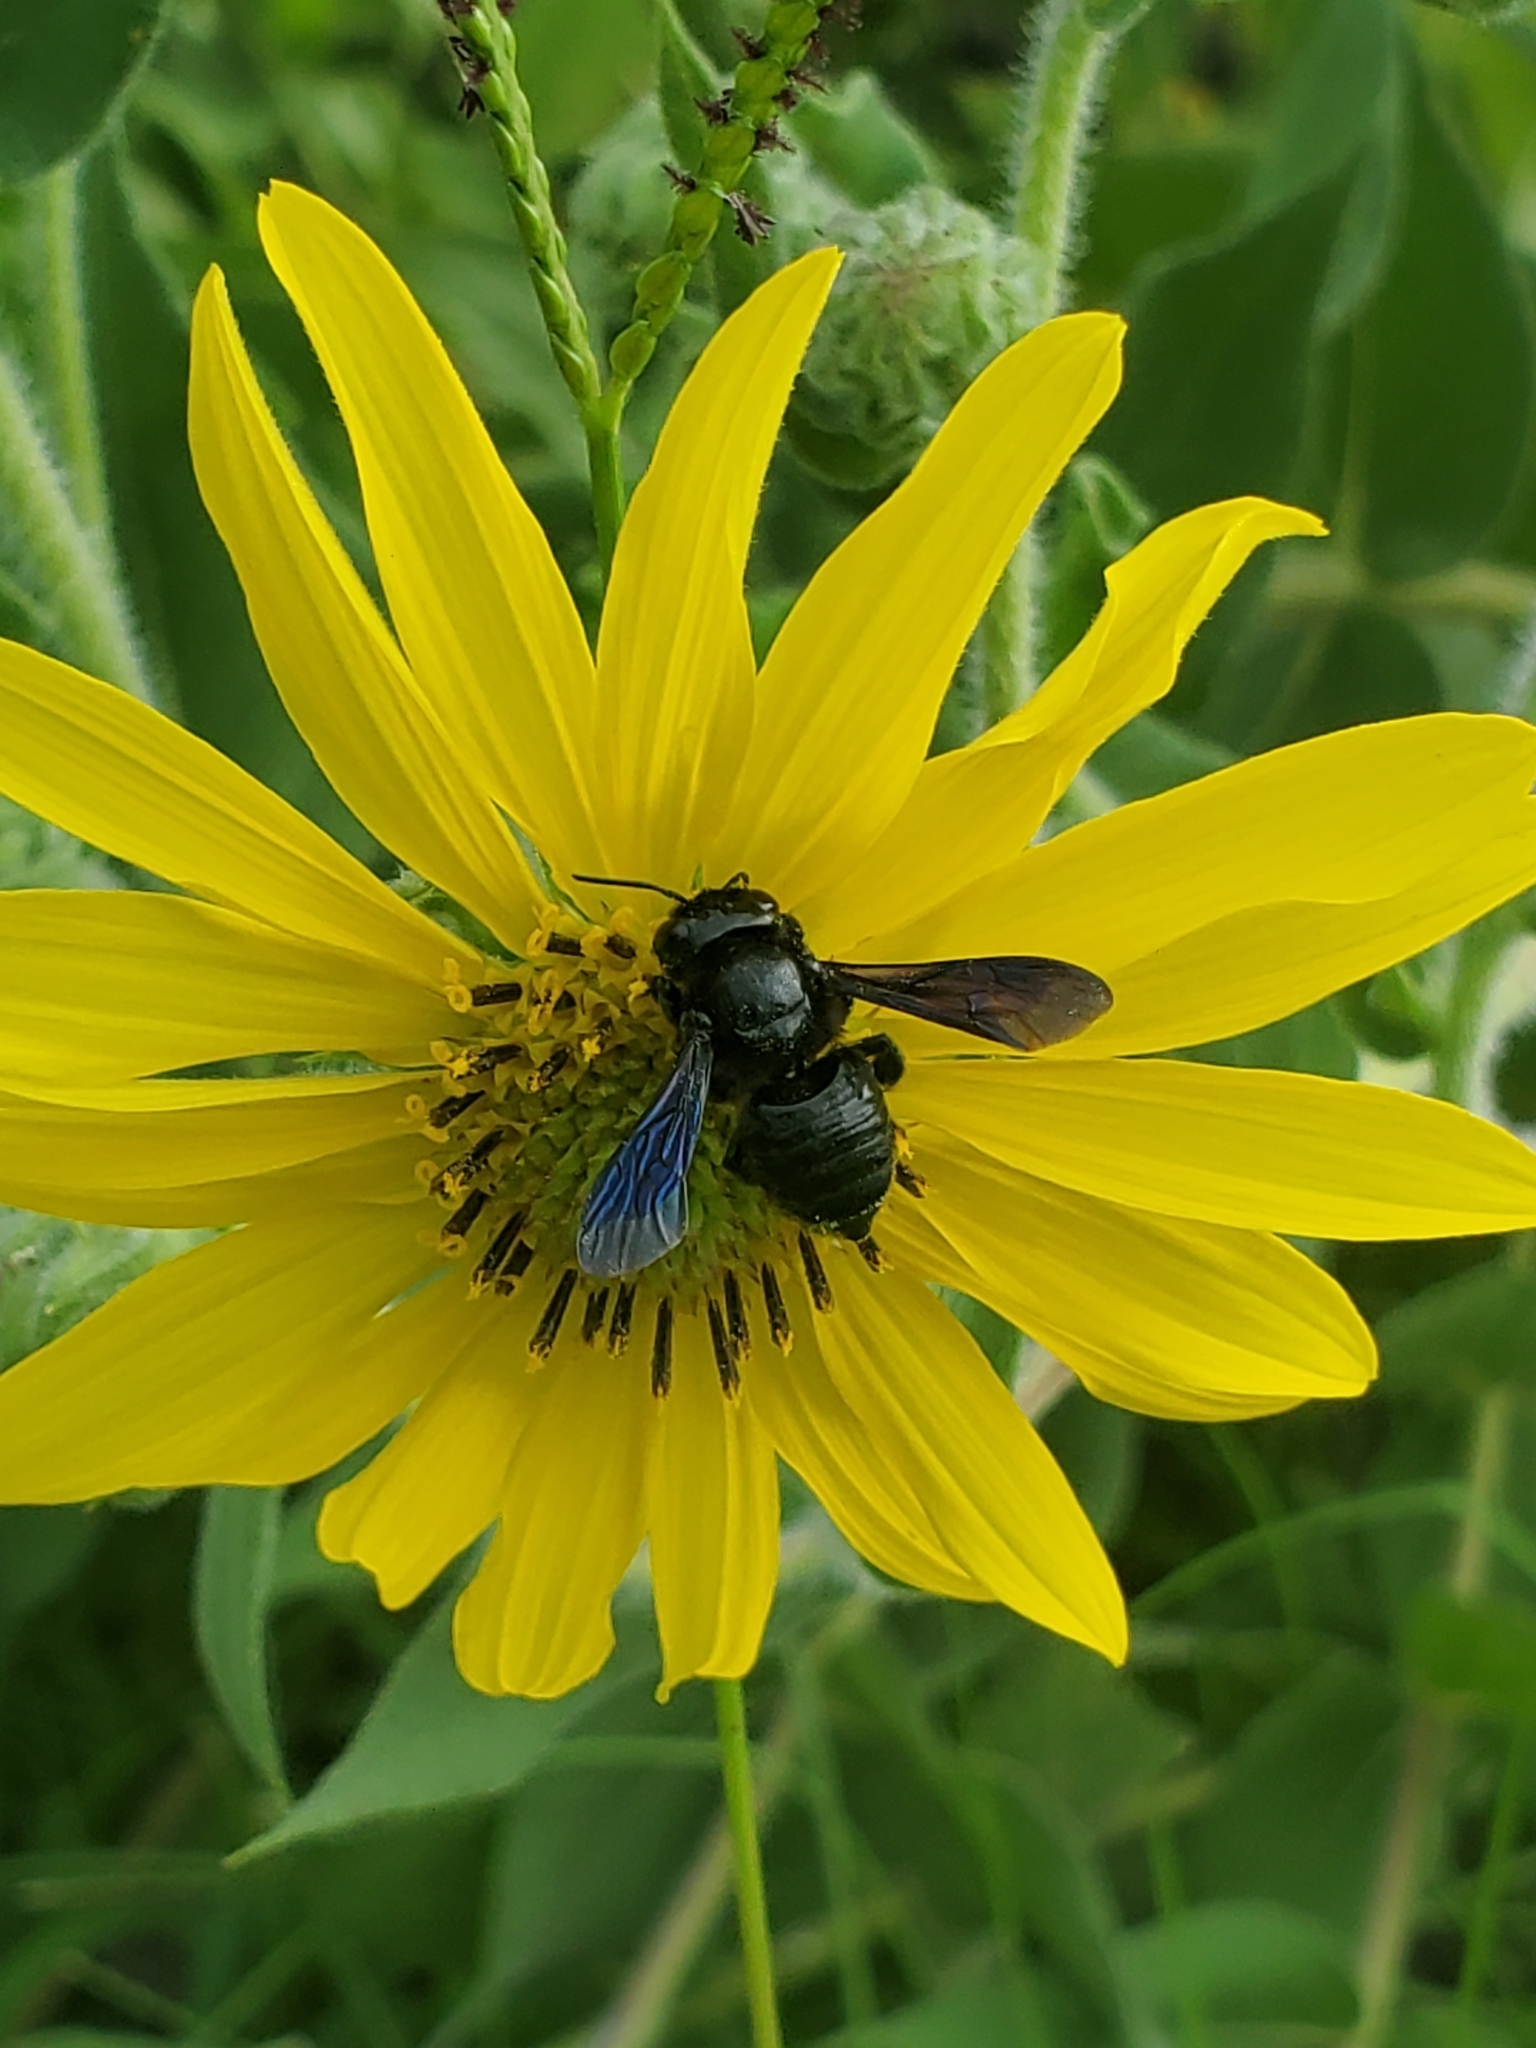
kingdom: Animalia
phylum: Arthropoda
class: Insecta
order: Hymenoptera
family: Megachilidae
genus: Megachile
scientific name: Megachile xylocopoides
